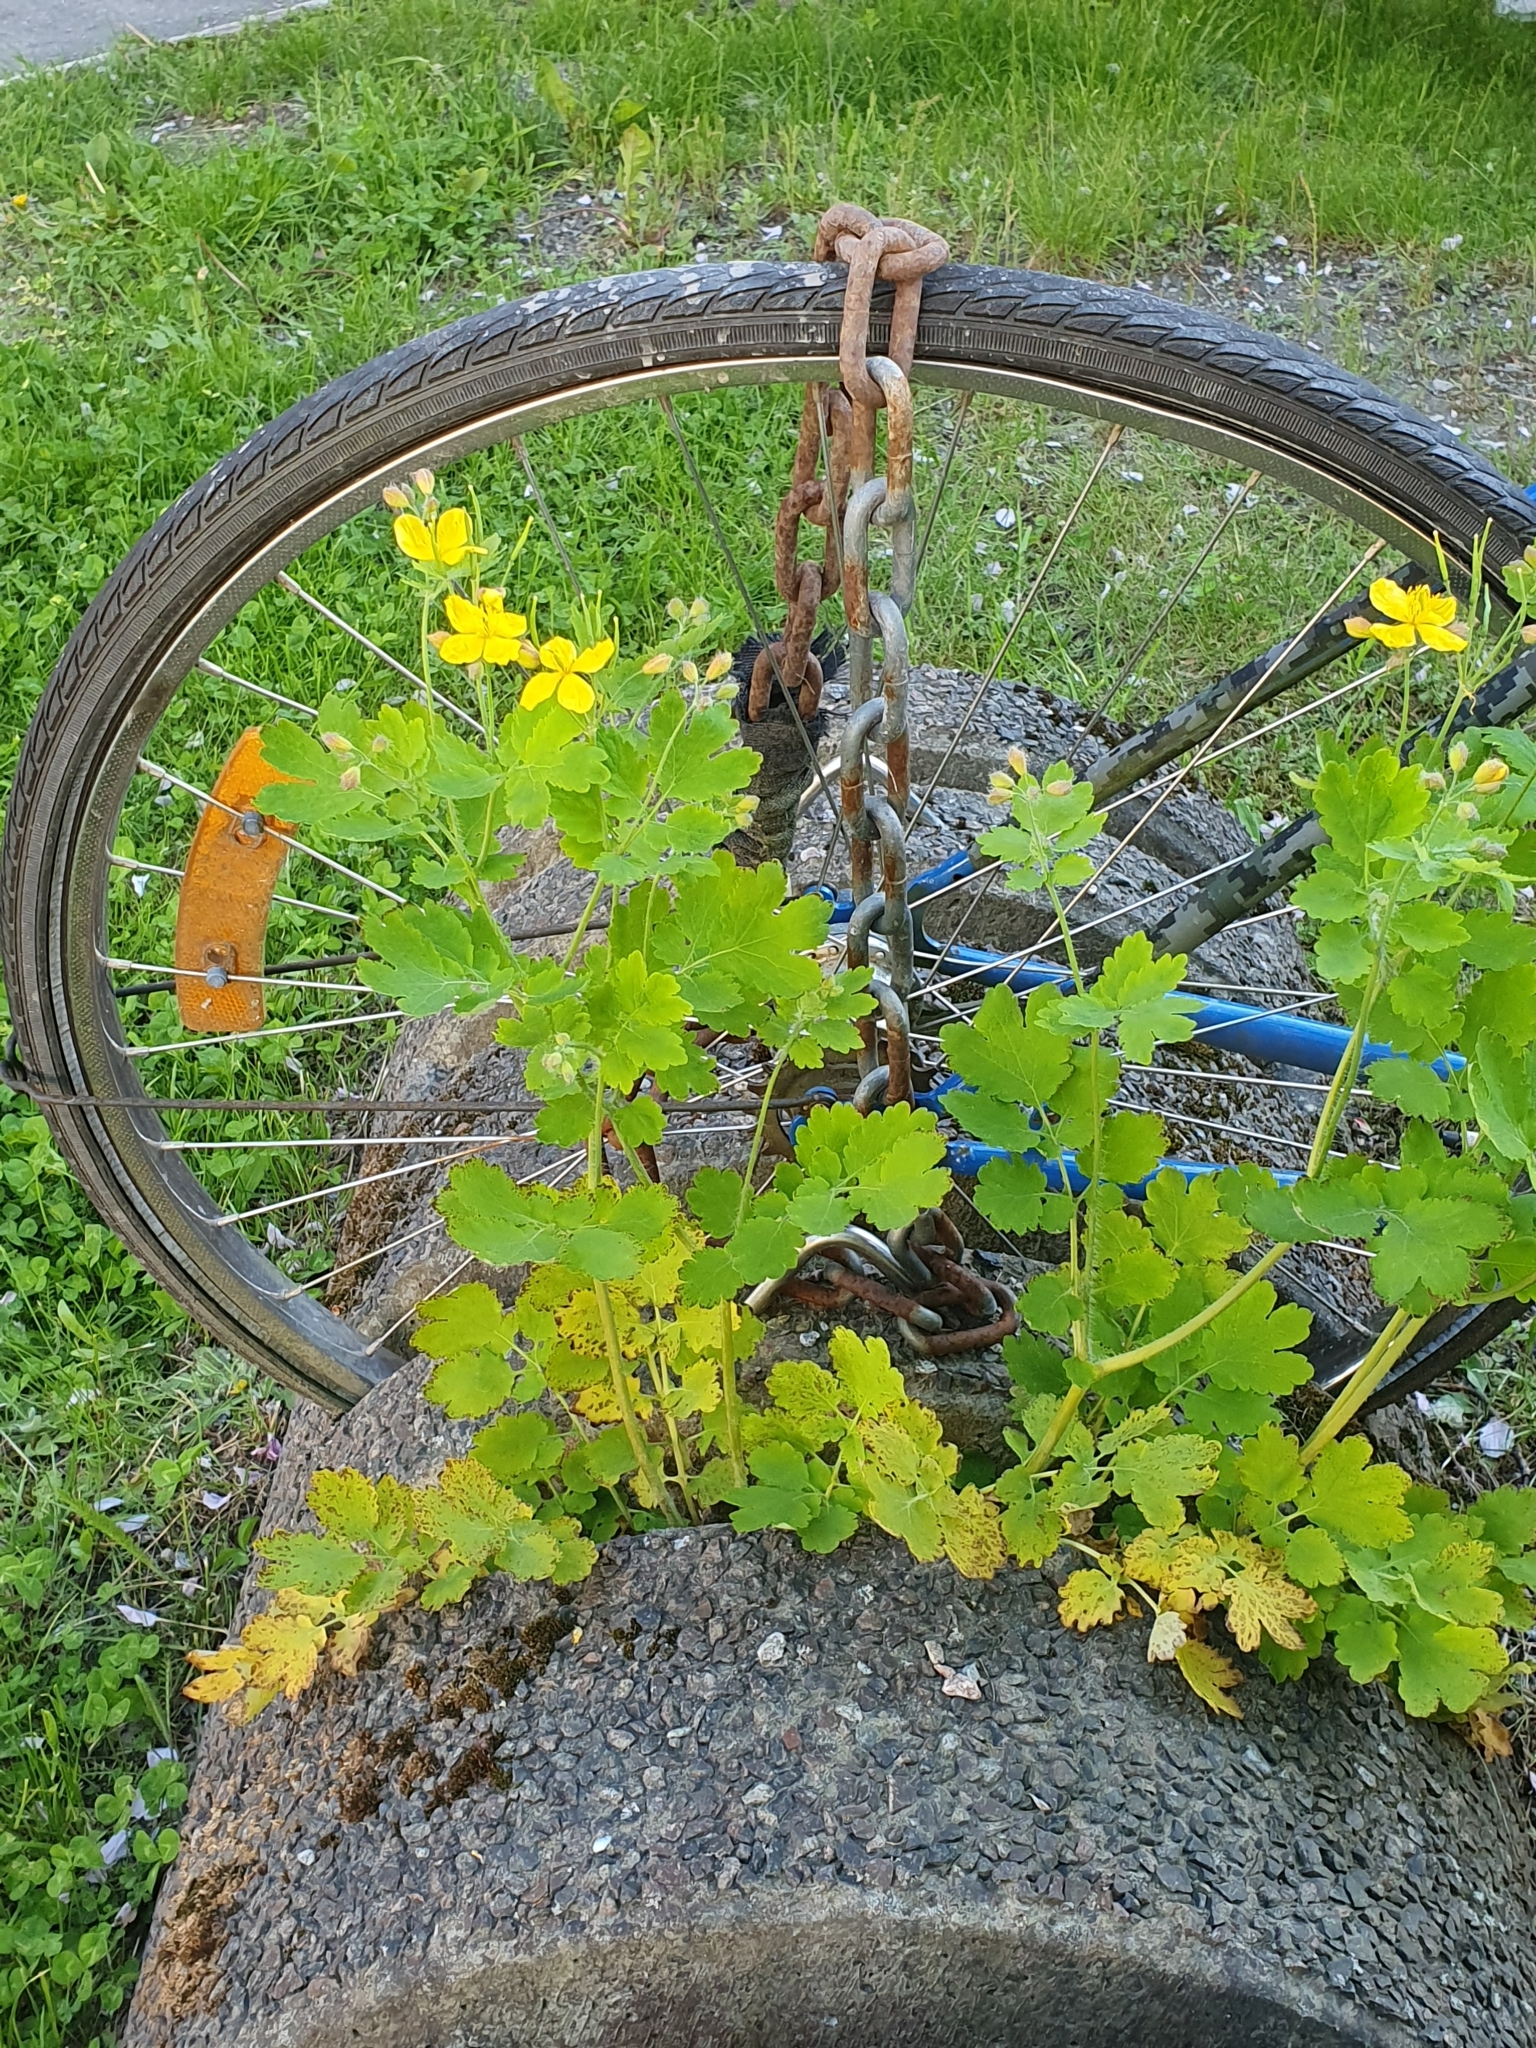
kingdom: Plantae
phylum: Tracheophyta
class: Magnoliopsida
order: Ranunculales
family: Papaveraceae
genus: Chelidonium
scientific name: Chelidonium majus
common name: Greater celandine
